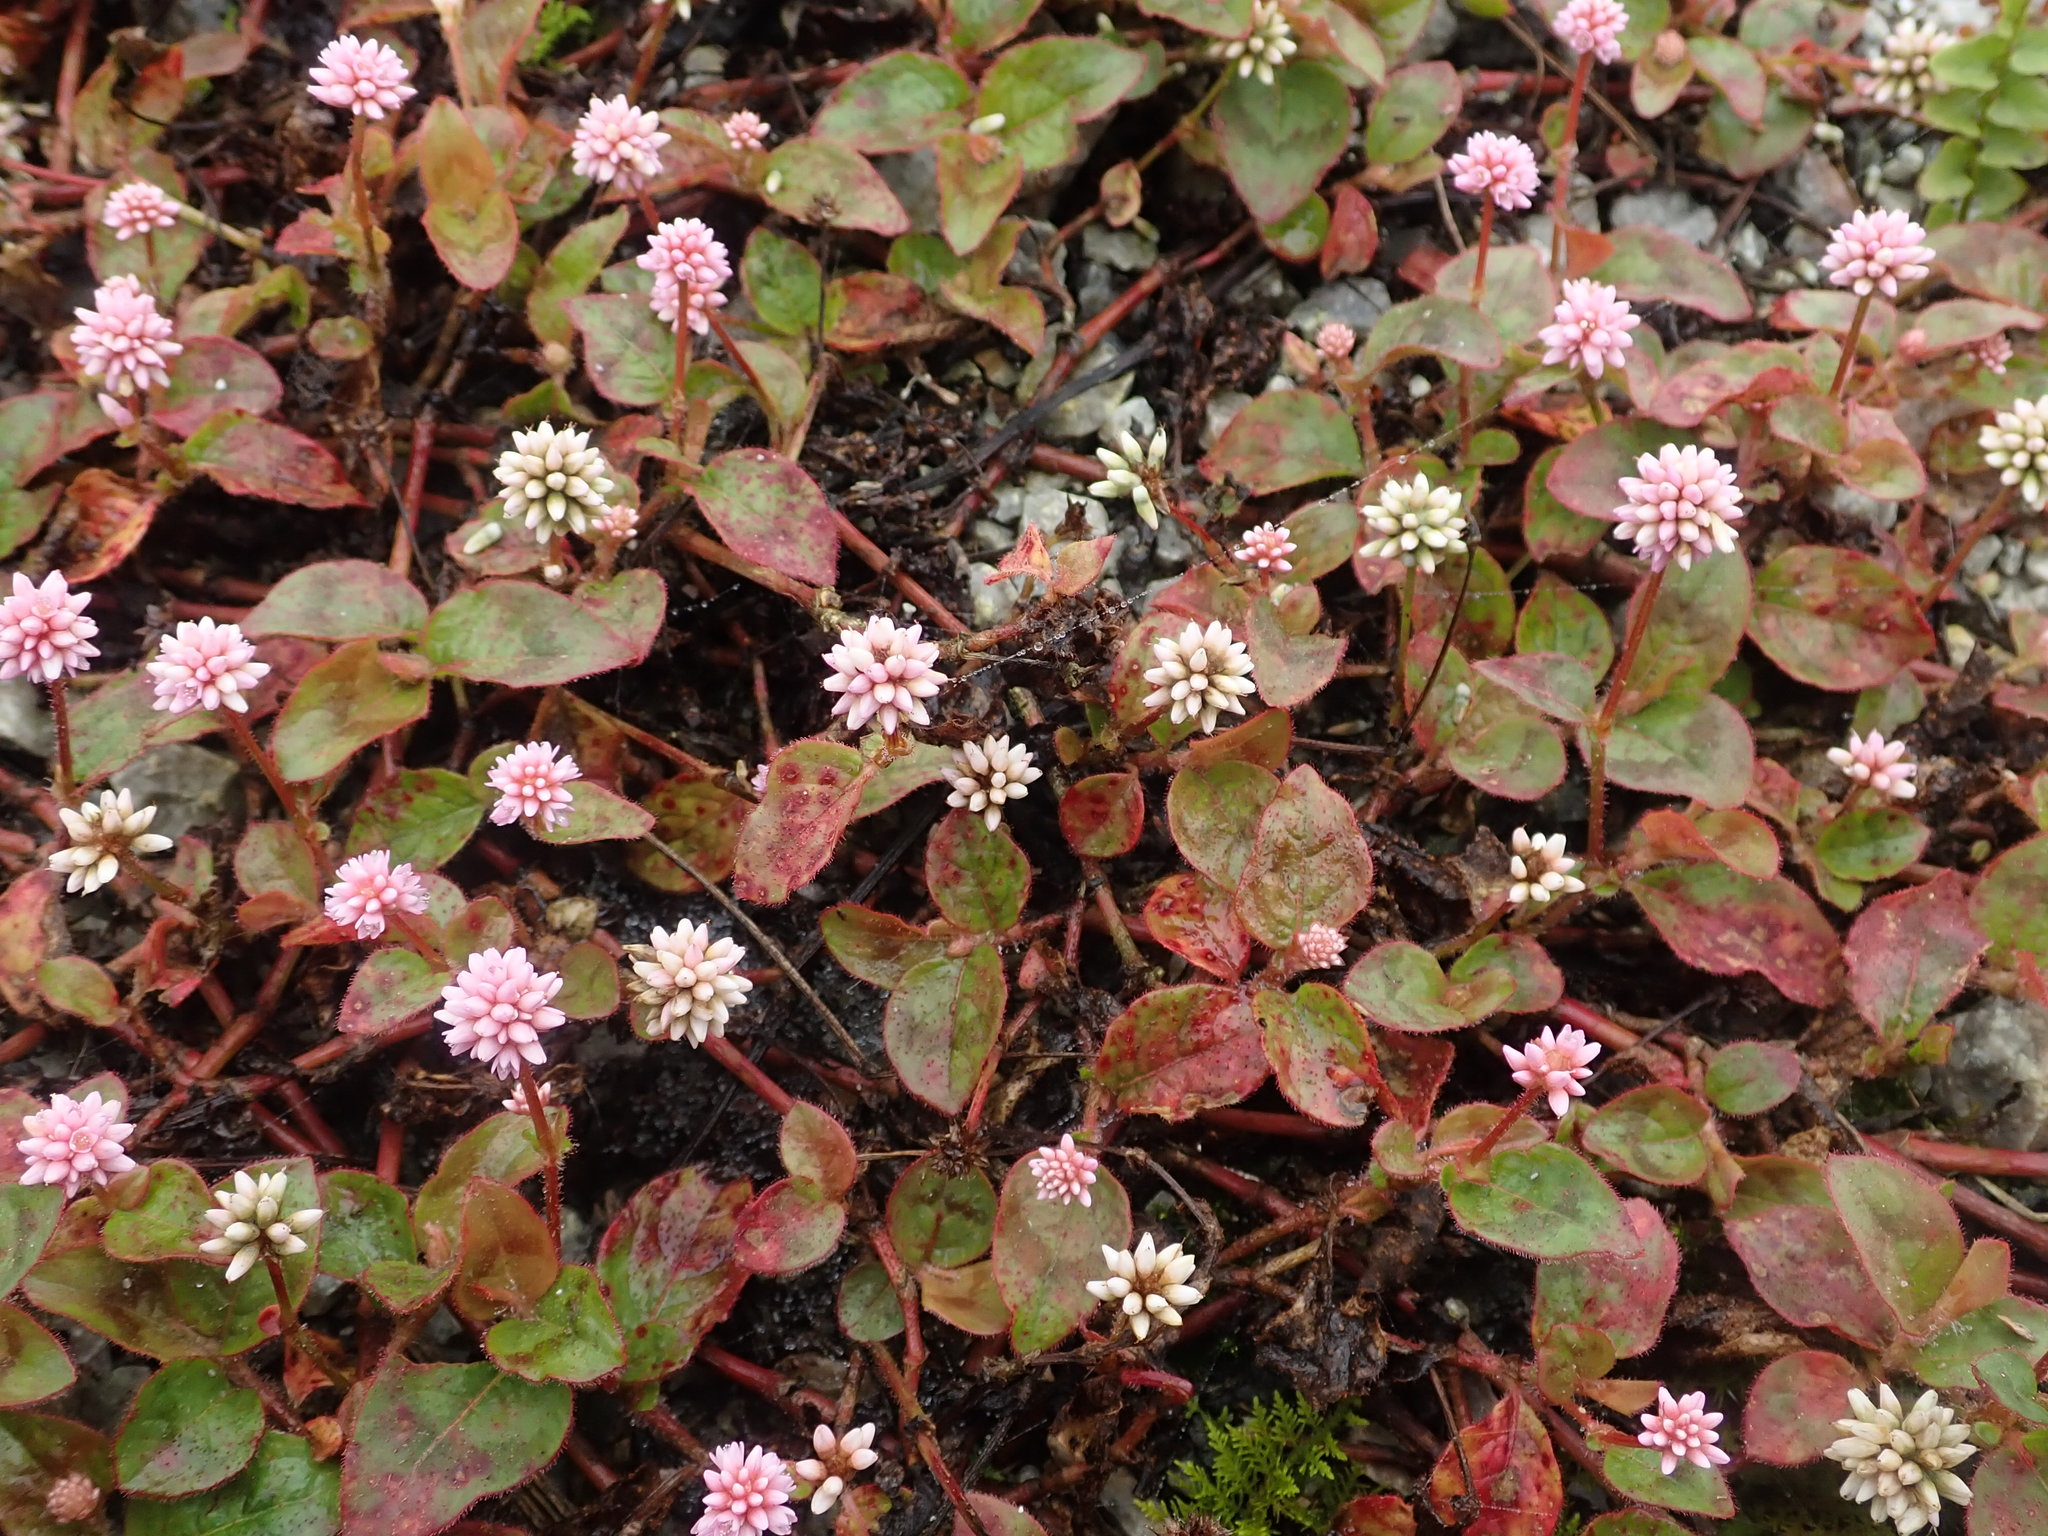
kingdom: Plantae
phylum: Tracheophyta
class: Magnoliopsida
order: Caryophyllales
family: Polygonaceae
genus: Persicaria
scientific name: Persicaria capitata
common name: Pinkhead smartweed
